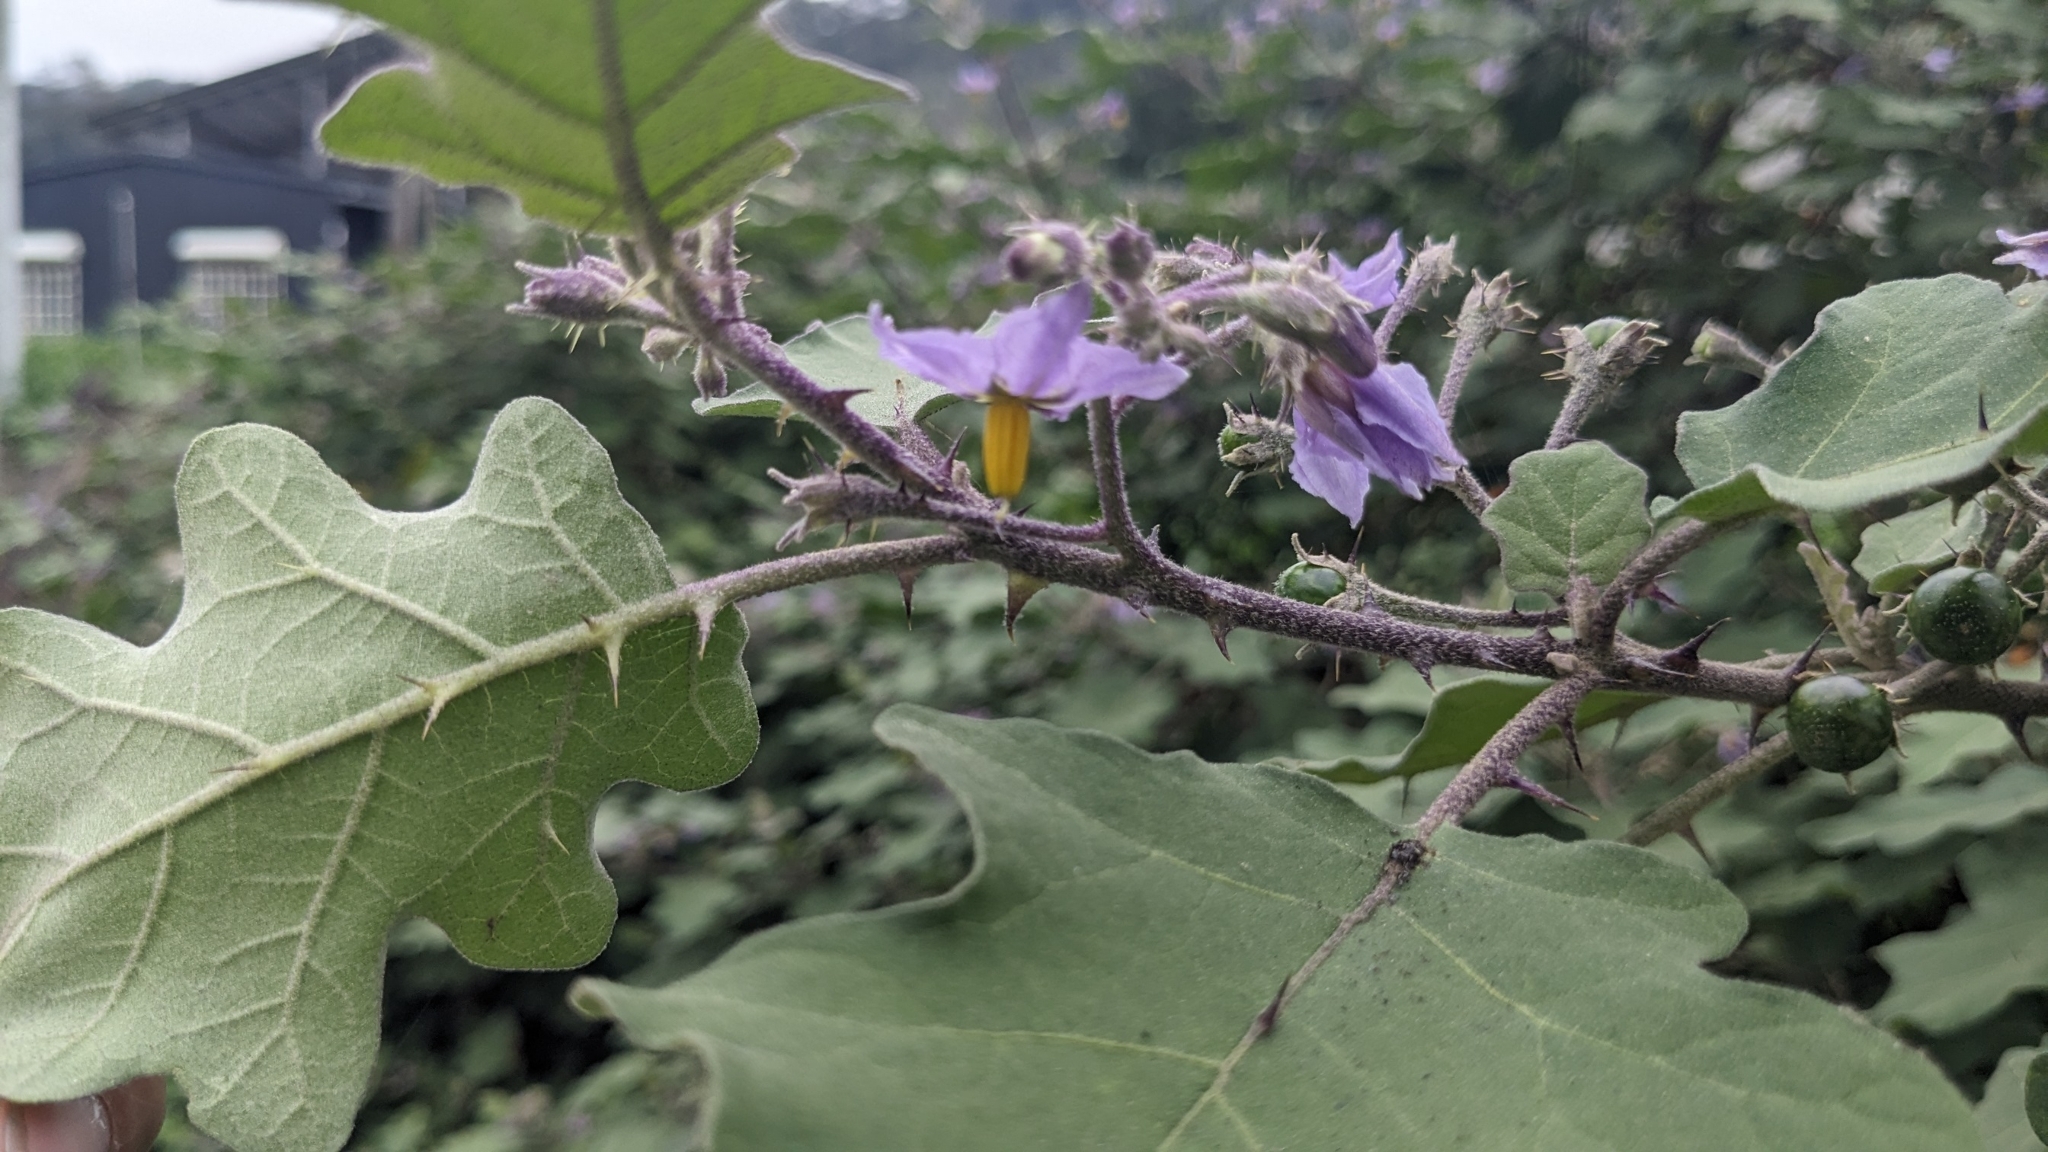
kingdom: Plantae
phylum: Tracheophyta
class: Magnoliopsida
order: Solanales
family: Solanaceae
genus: Solanum
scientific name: Solanum violaceum
